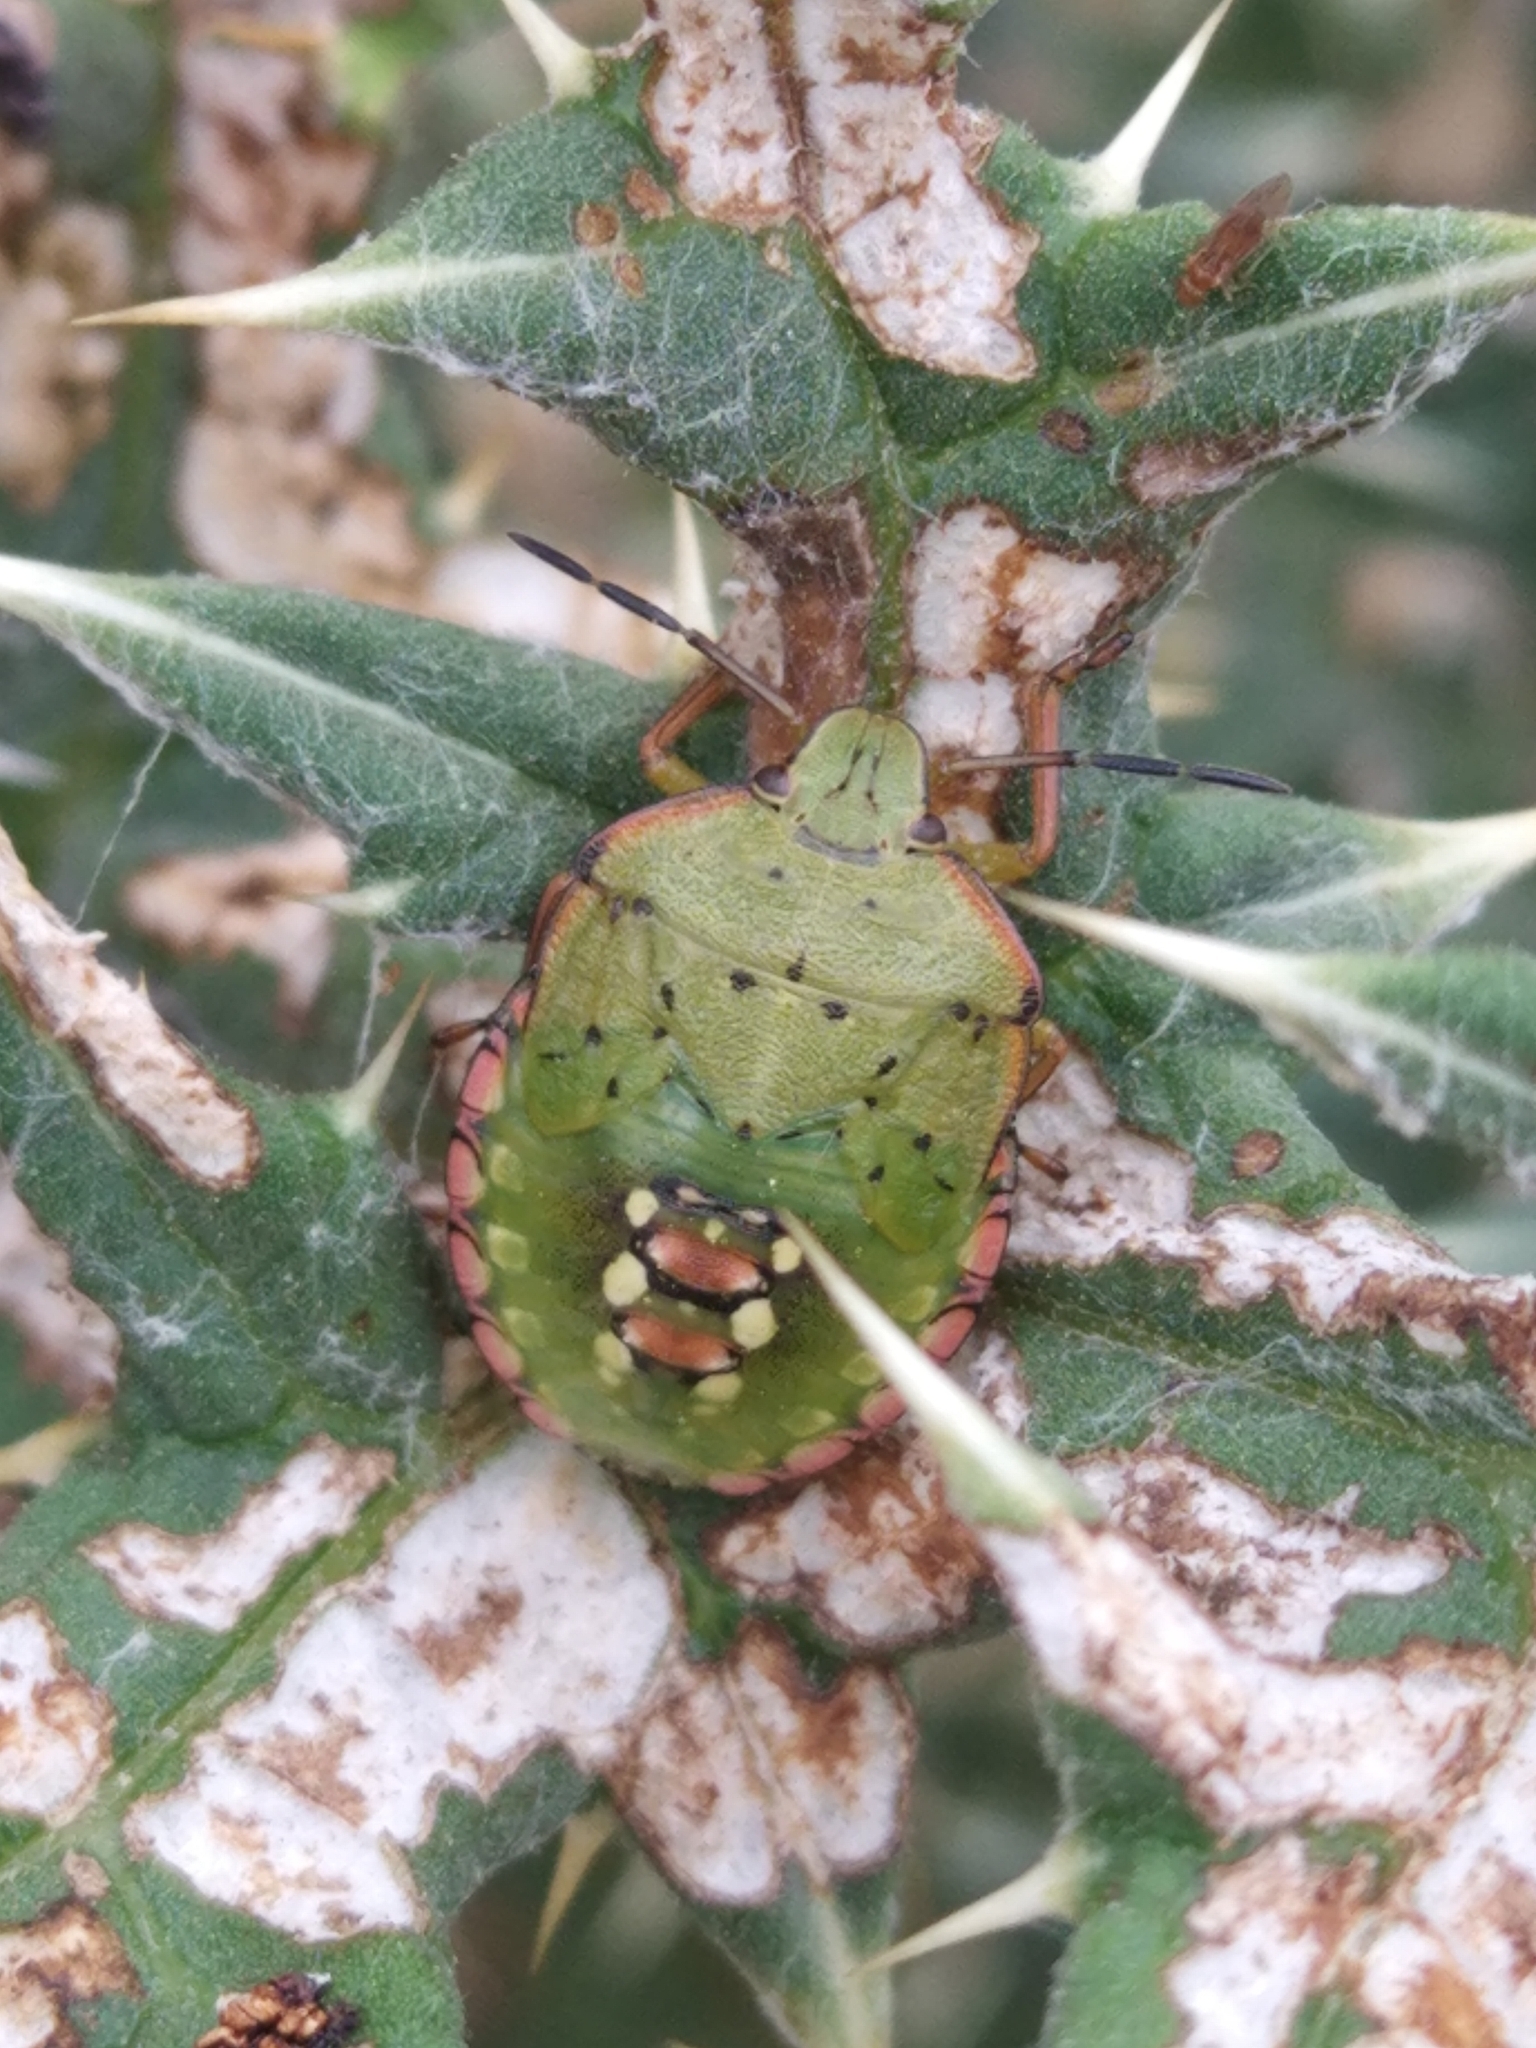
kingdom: Animalia
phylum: Arthropoda
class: Insecta
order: Hemiptera
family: Pentatomidae
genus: Palomena
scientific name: Palomena prasina
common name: Green shieldbug
